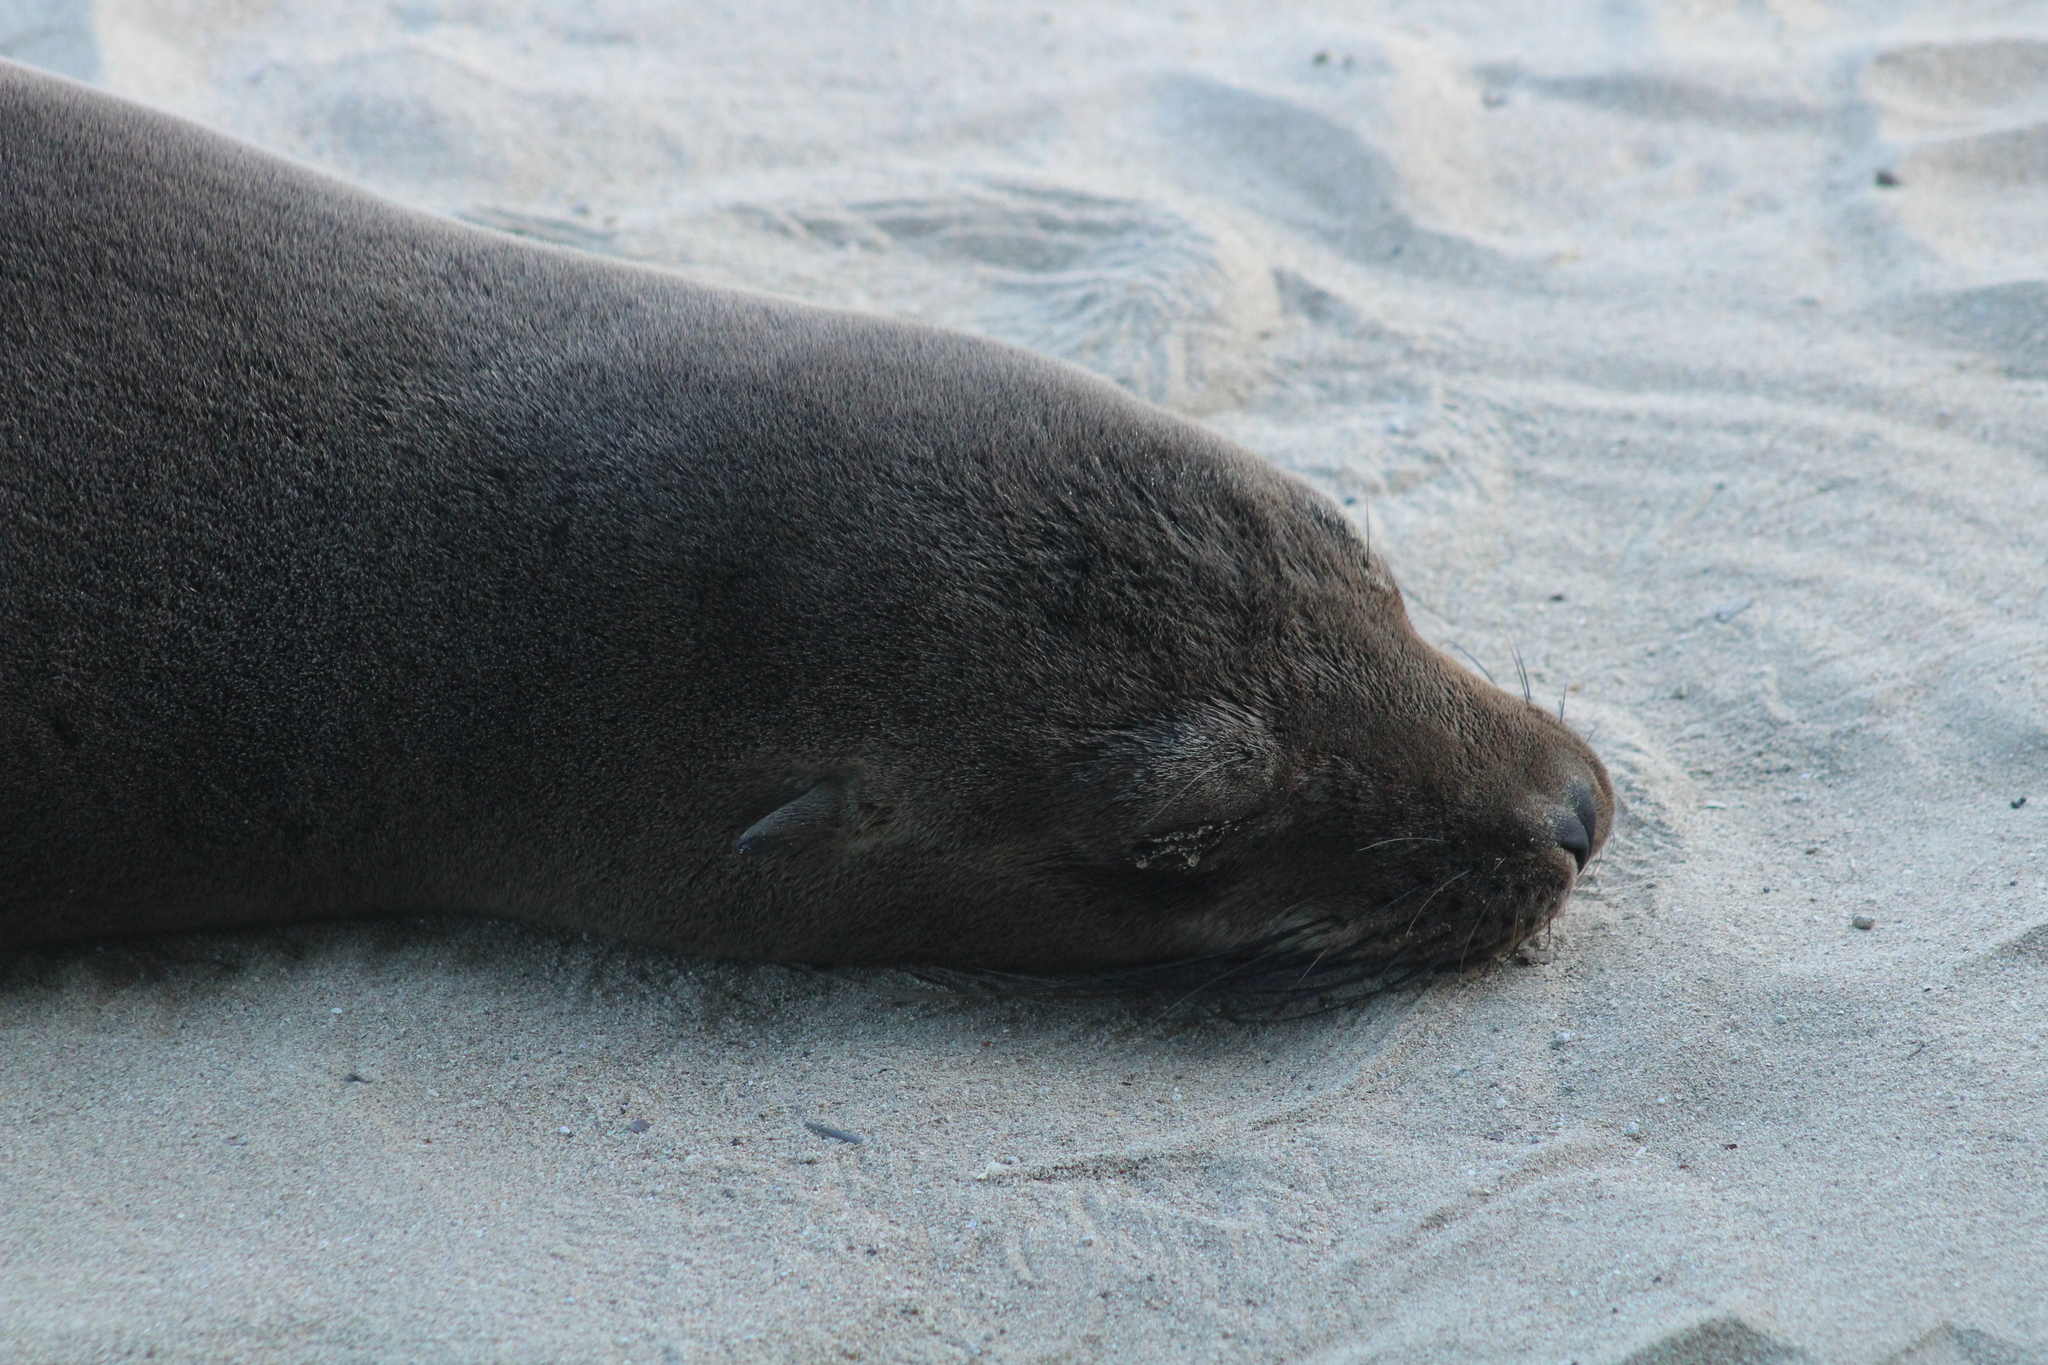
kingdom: Animalia
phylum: Chordata
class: Mammalia
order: Carnivora
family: Otariidae
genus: Zalophus
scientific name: Zalophus wollebaeki
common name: Galapagos sea lion
